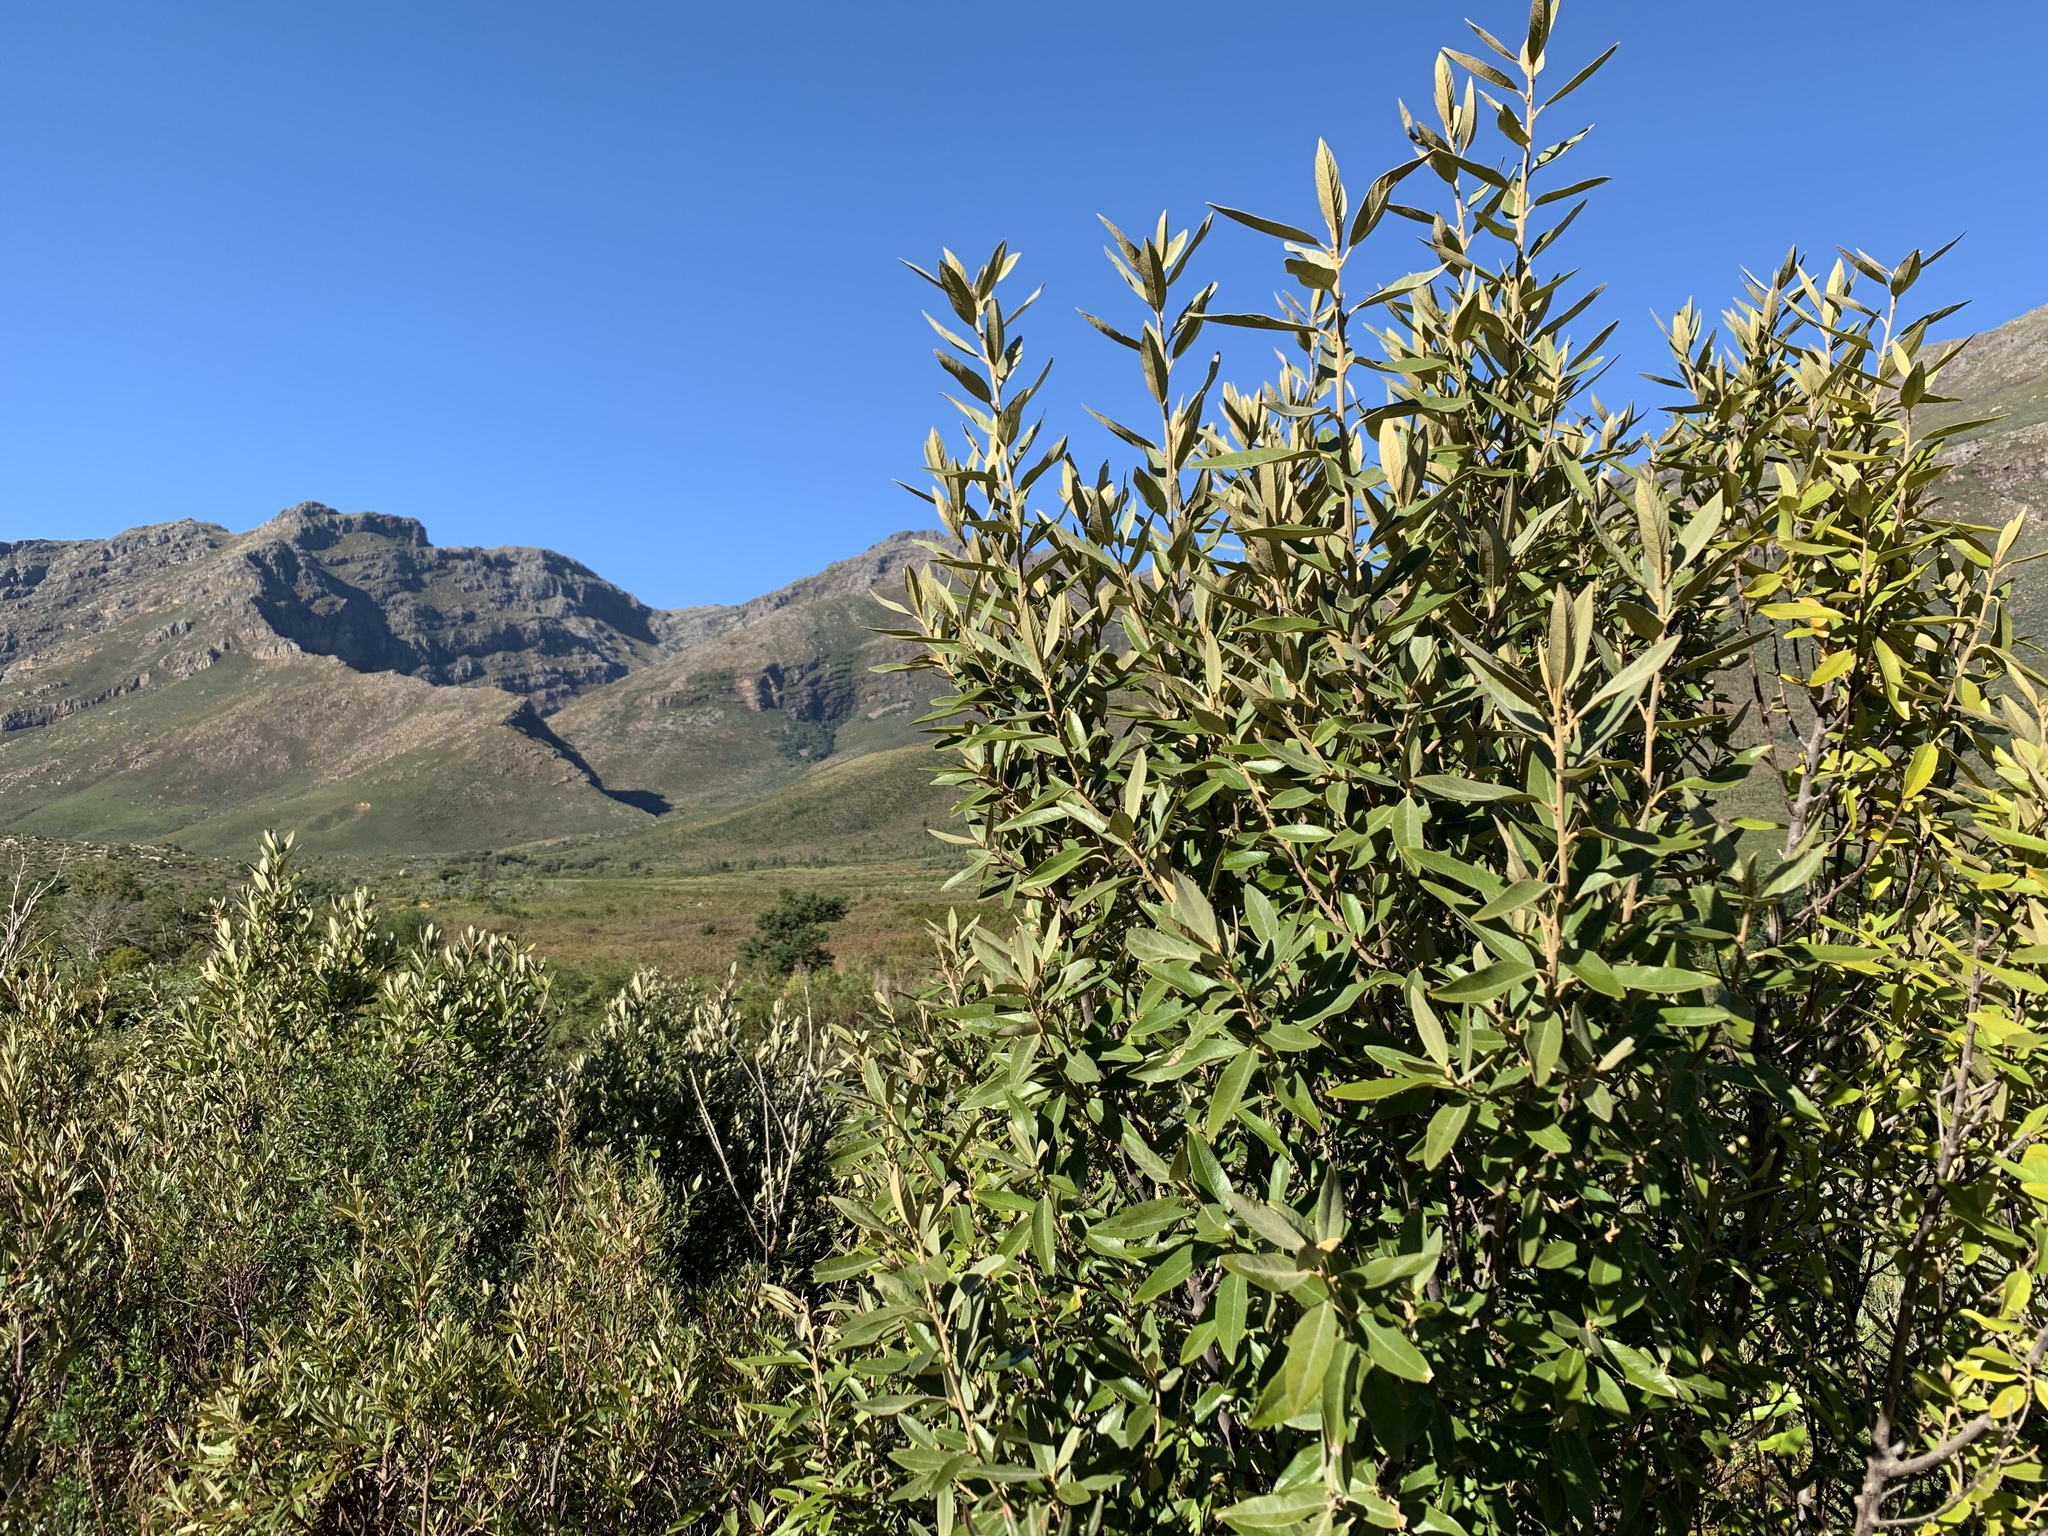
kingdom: Plantae
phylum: Tracheophyta
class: Magnoliopsida
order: Malpighiales
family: Achariaceae
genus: Kiggelaria
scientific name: Kiggelaria africana
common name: Wild peach
